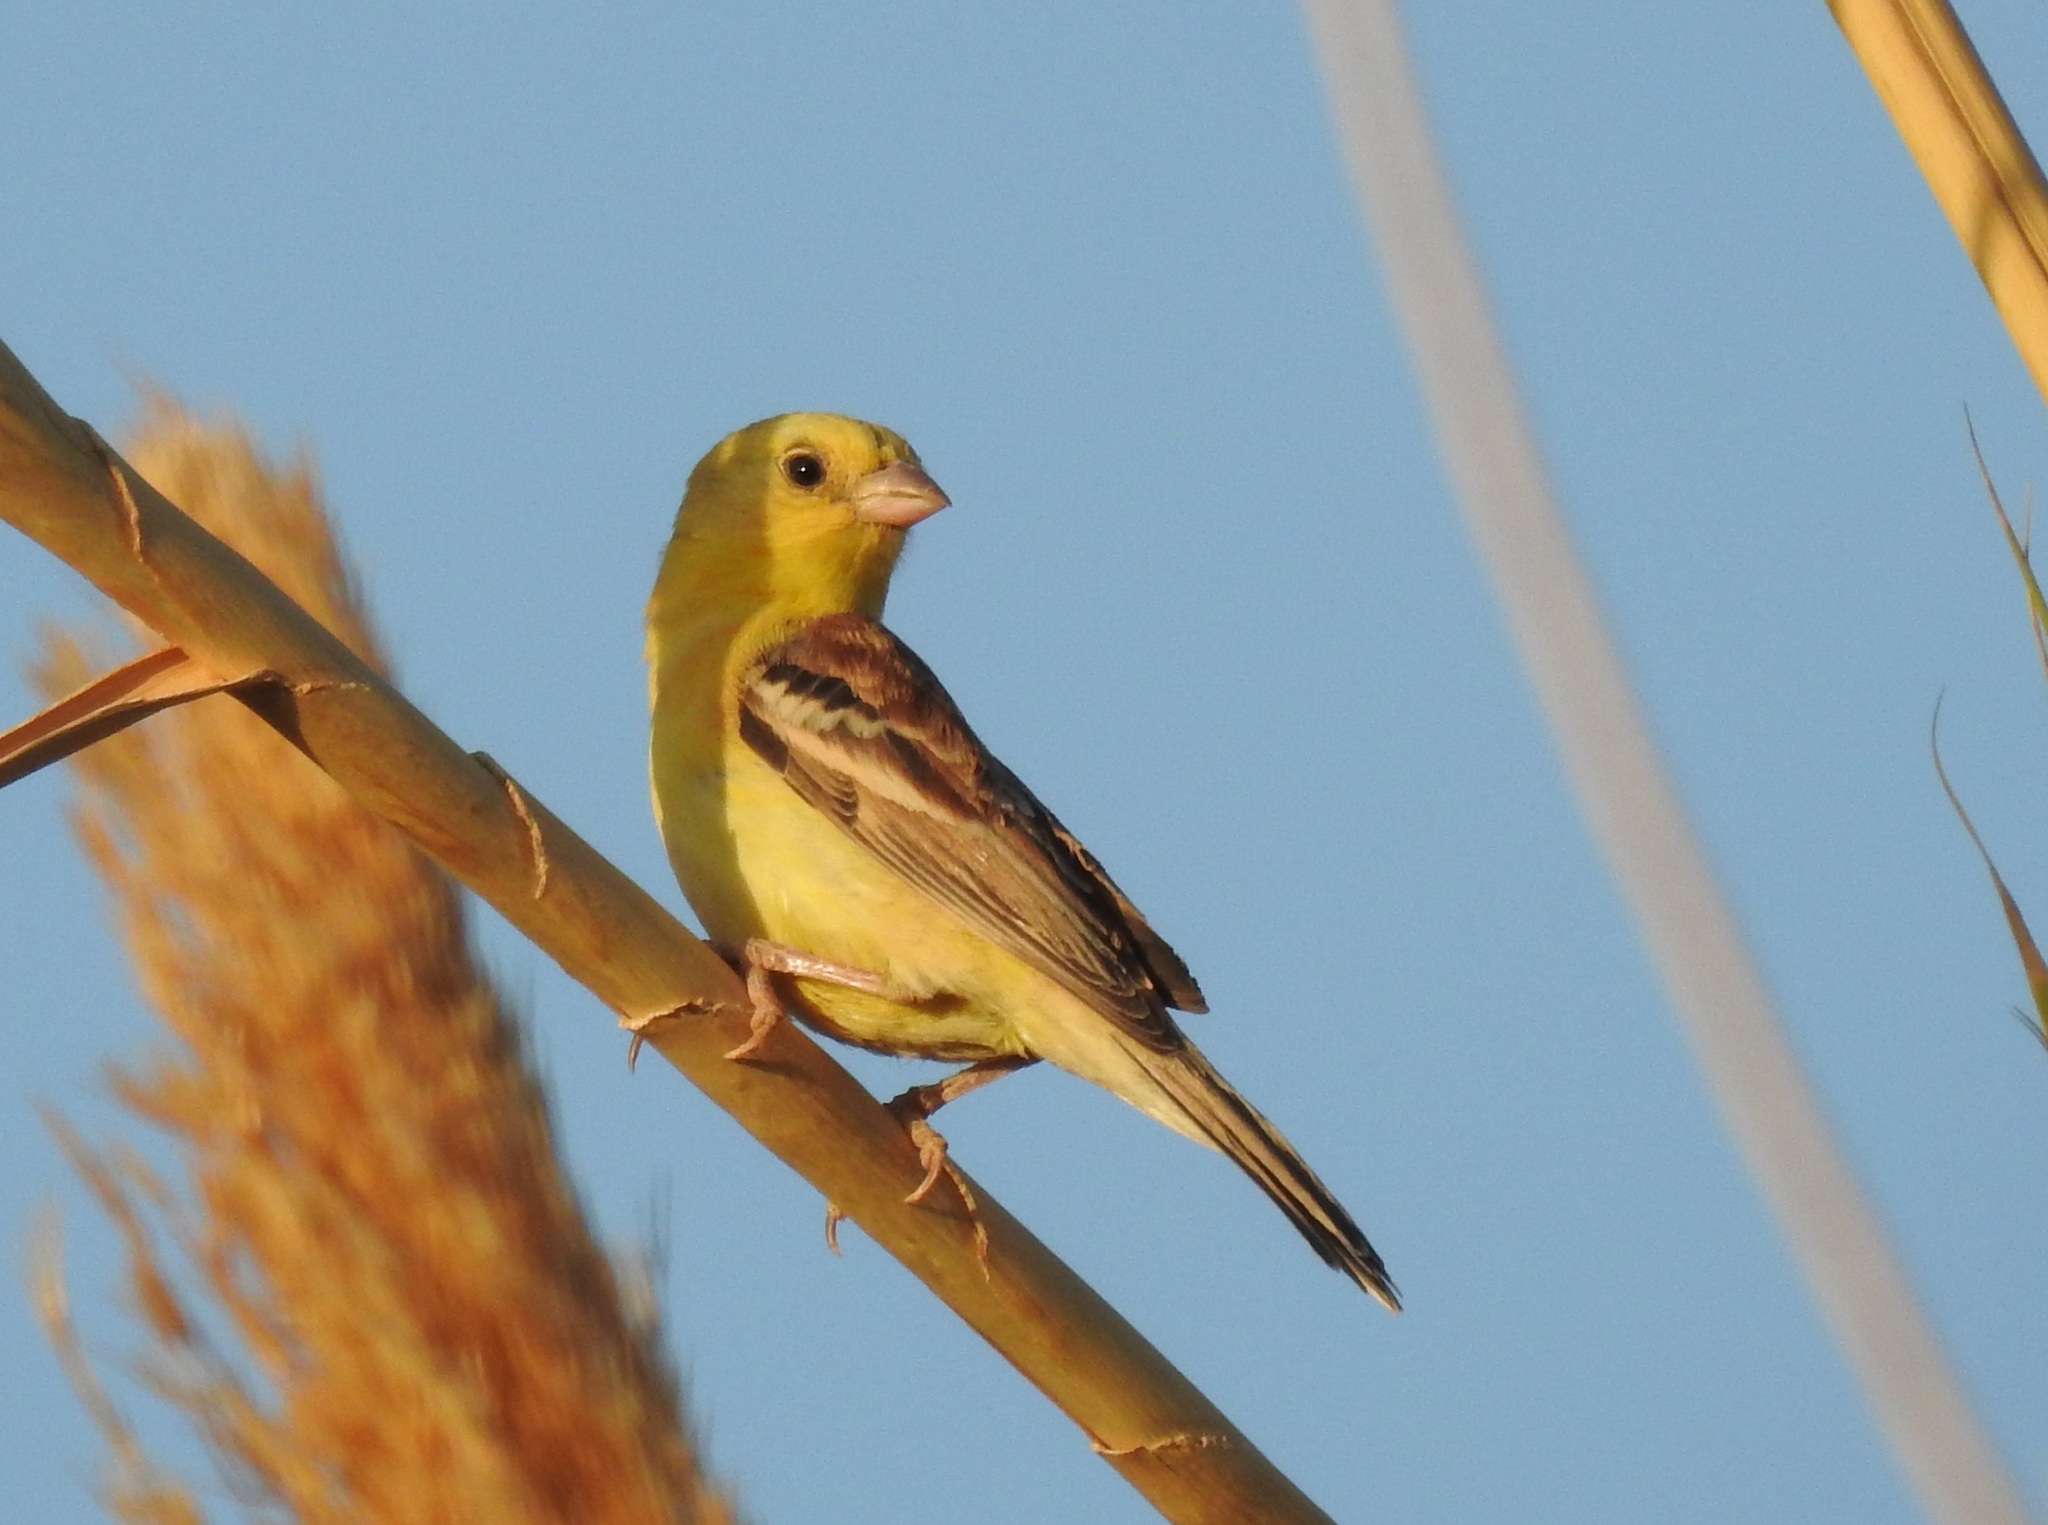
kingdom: Animalia
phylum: Chordata
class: Aves
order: Passeriformes
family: Passeridae
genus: Passer
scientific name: Passer luteus
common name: Sudan golden sparrow
